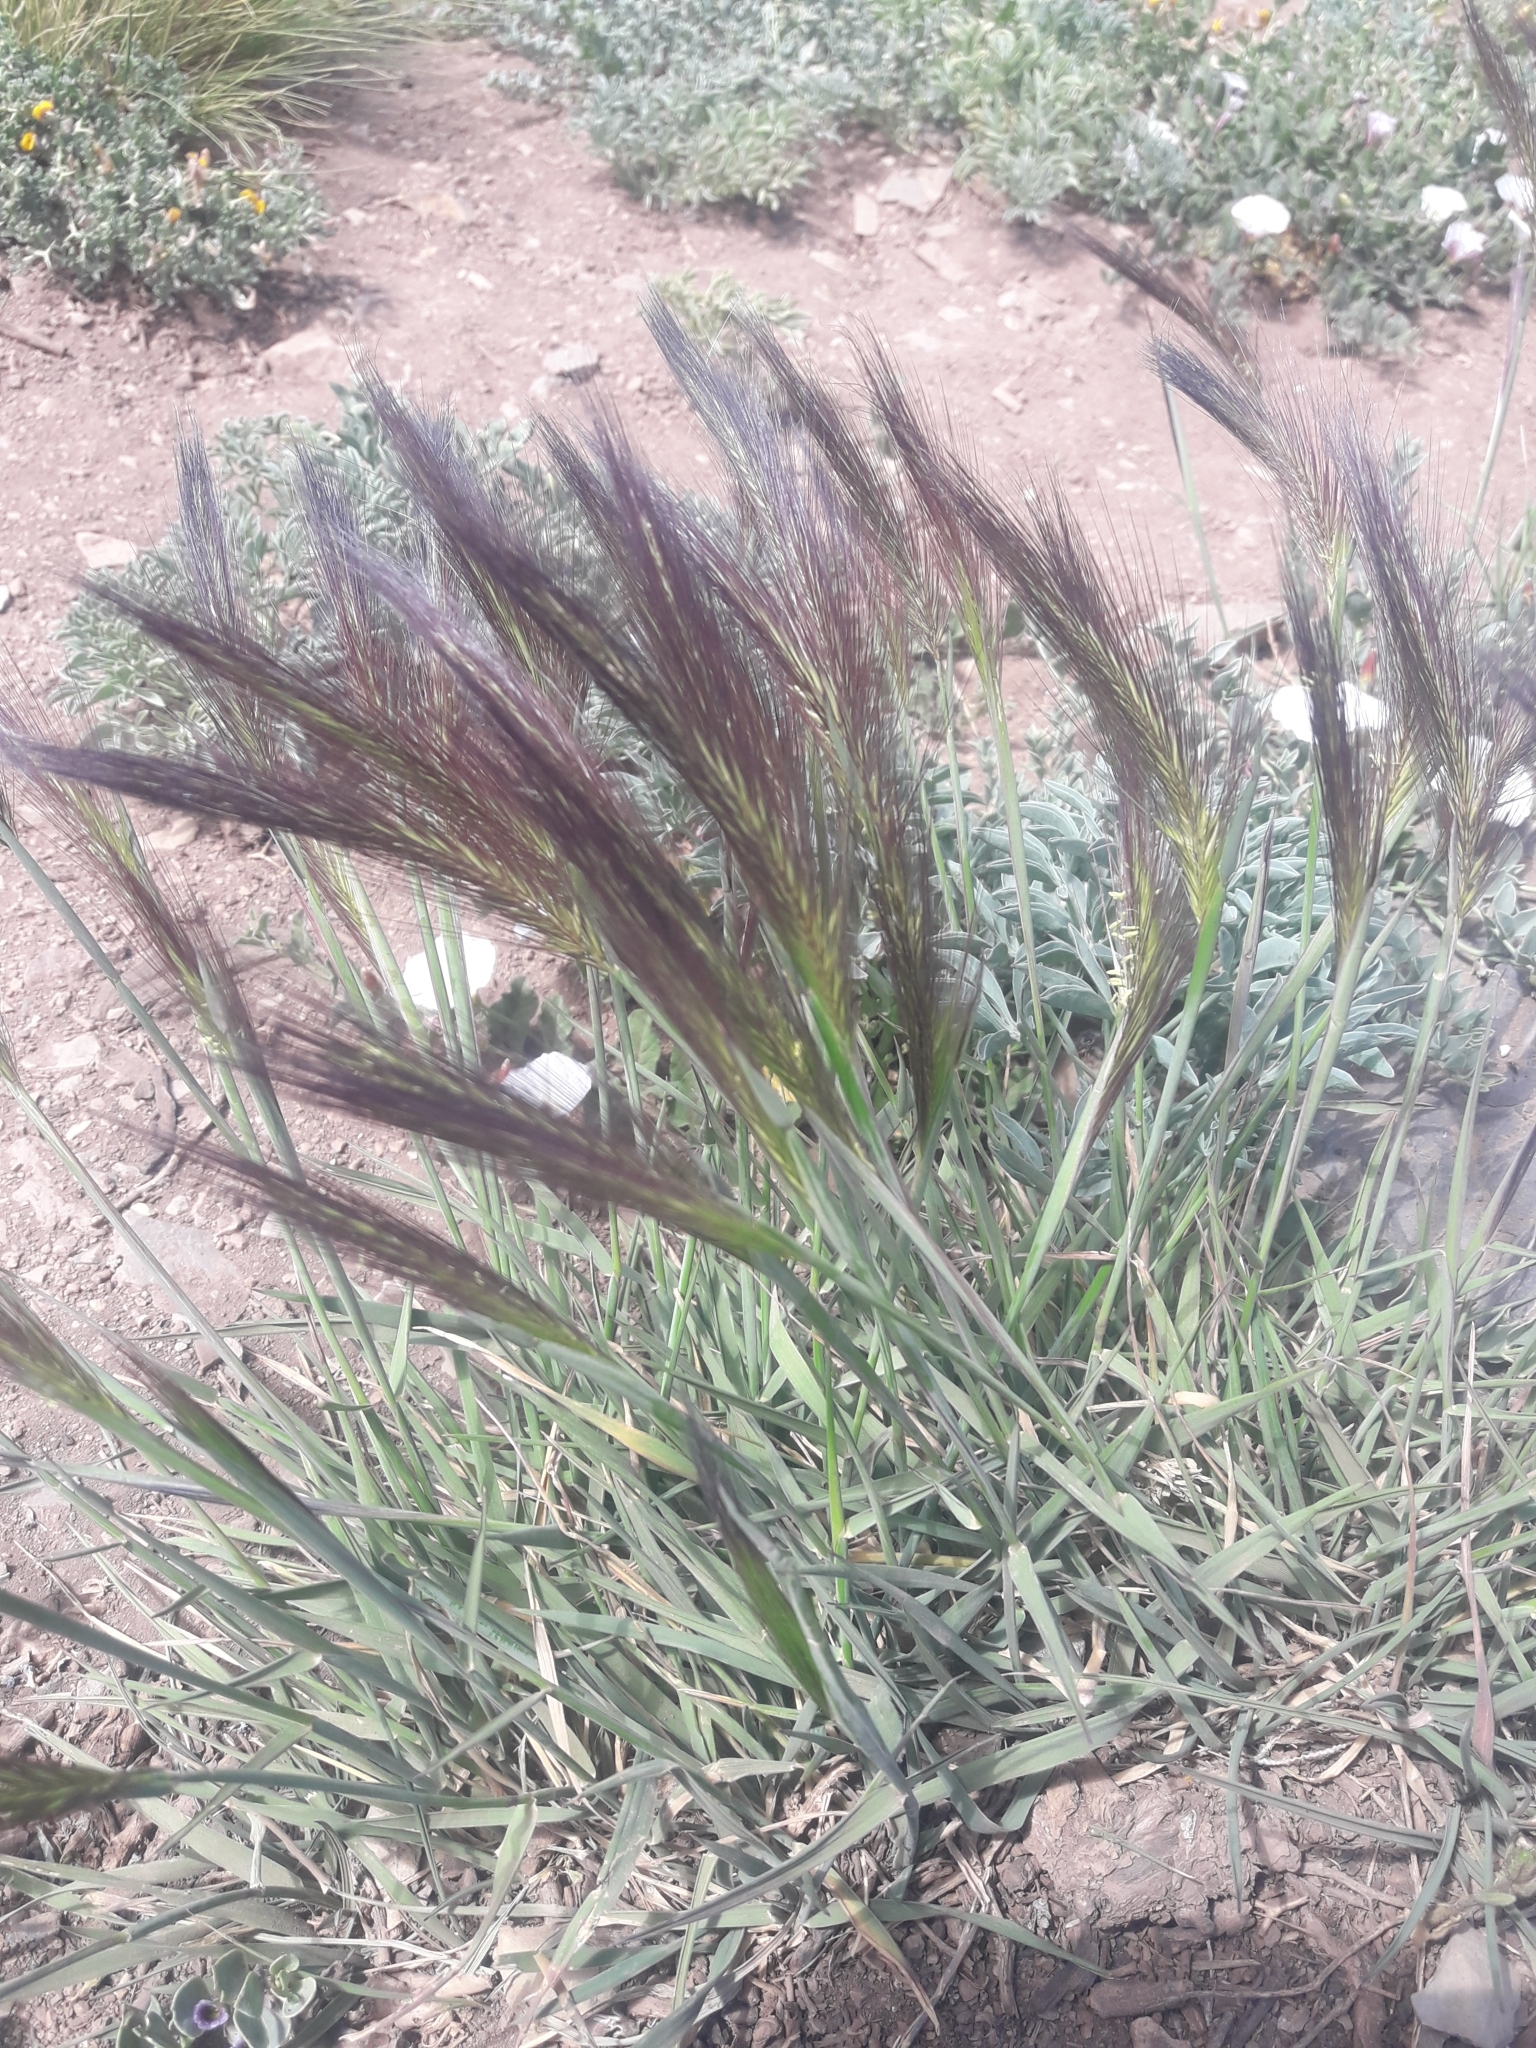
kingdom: Plantae
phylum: Tracheophyta
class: Liliopsida
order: Poales
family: Poaceae
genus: Hordeum
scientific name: Hordeum comosum
